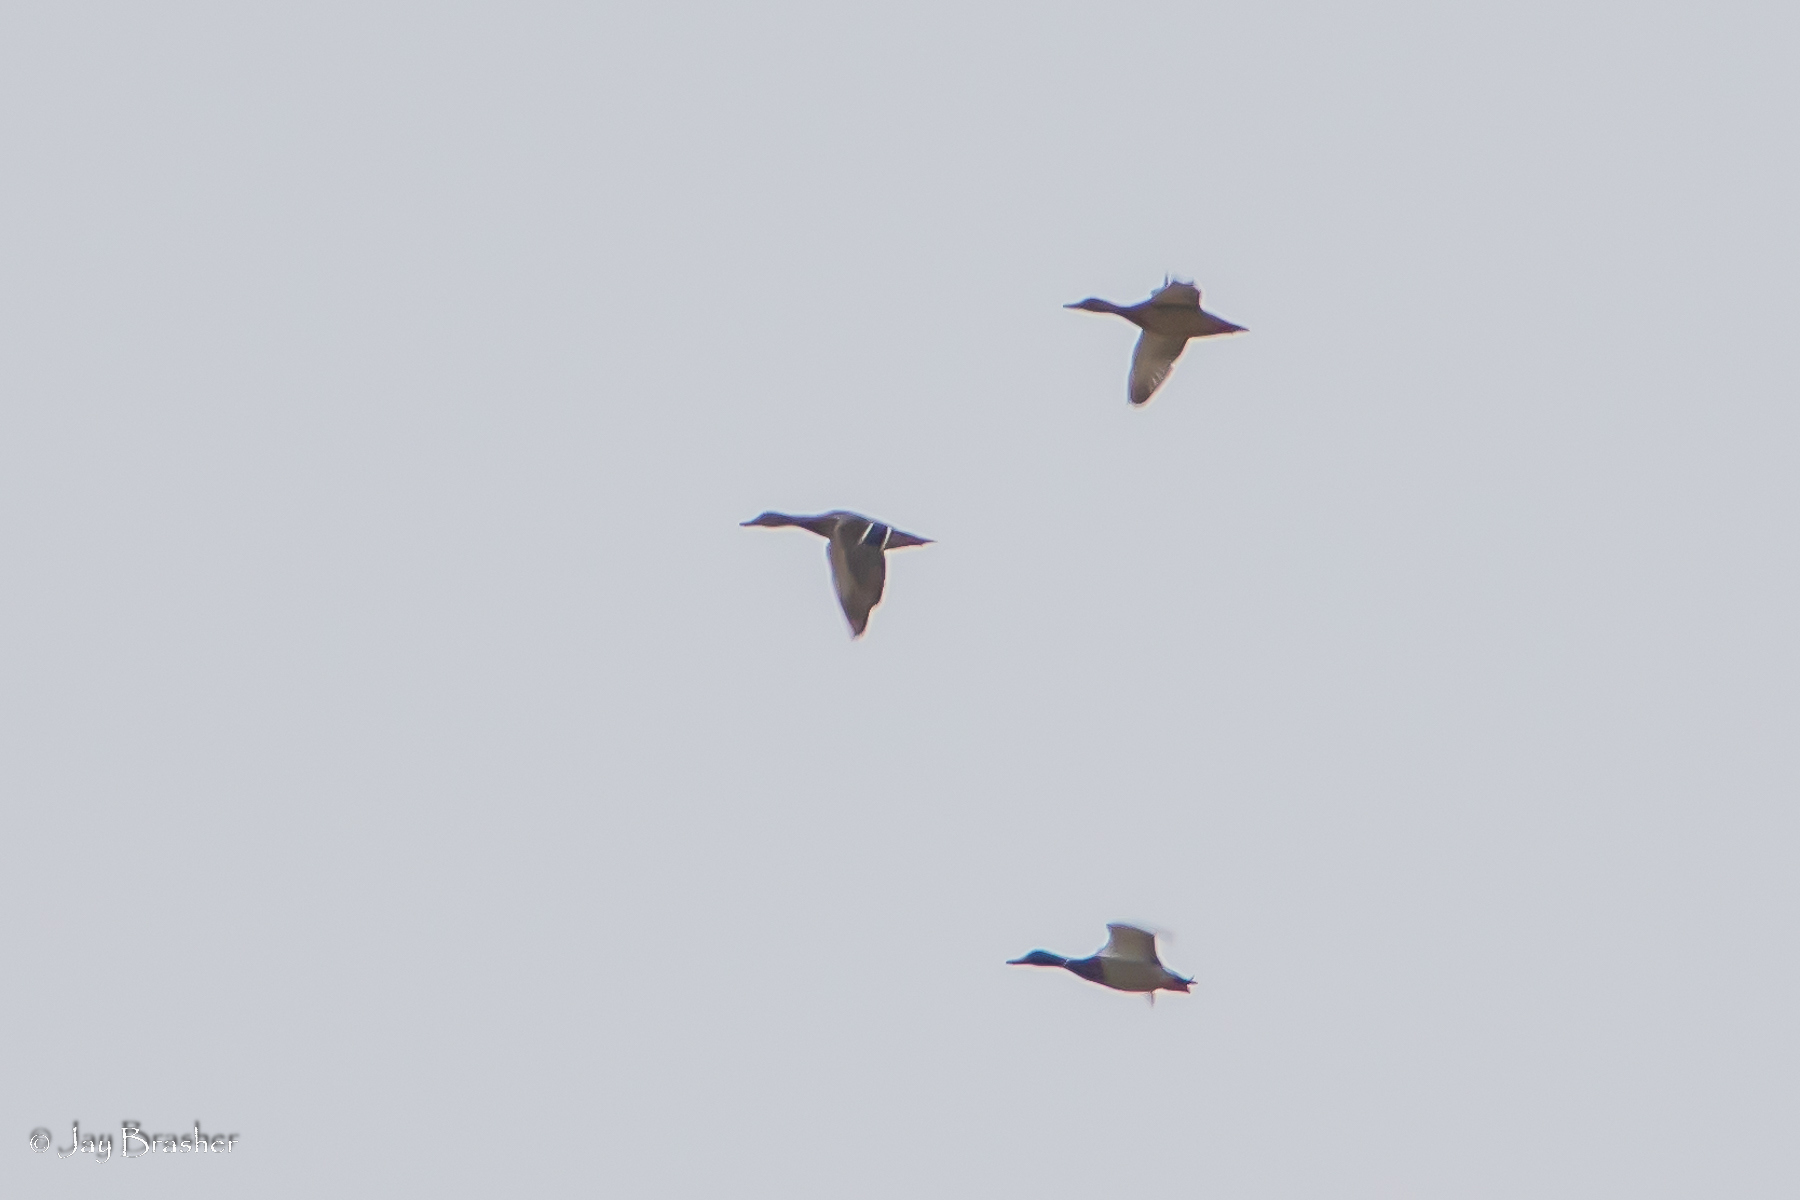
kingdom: Animalia
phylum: Chordata
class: Aves
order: Anseriformes
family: Anatidae
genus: Anas
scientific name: Anas platyrhynchos
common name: Mallard
